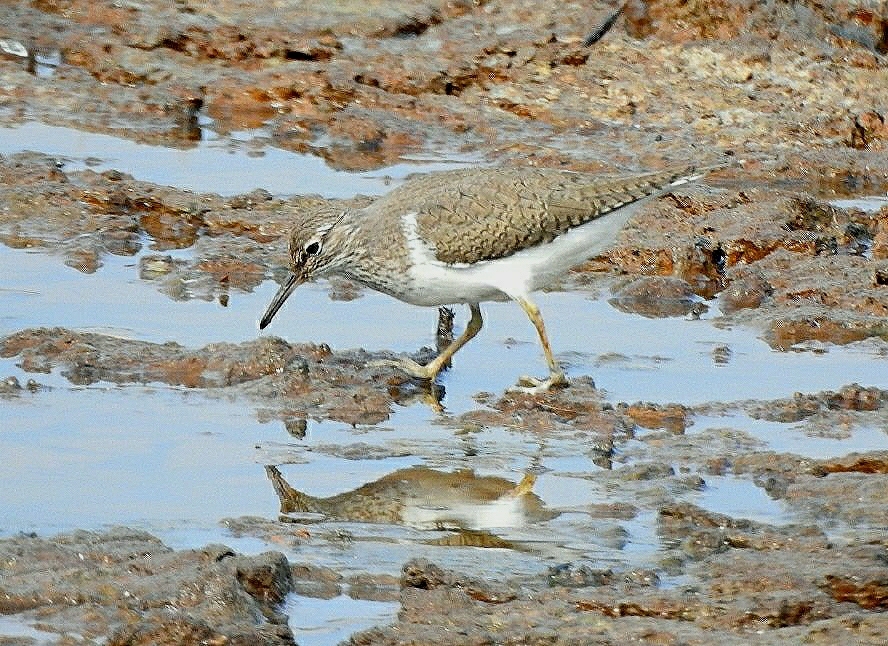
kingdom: Animalia
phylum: Chordata
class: Aves
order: Charadriiformes
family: Scolopacidae
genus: Actitis
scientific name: Actitis hypoleucos
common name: Common sandpiper
